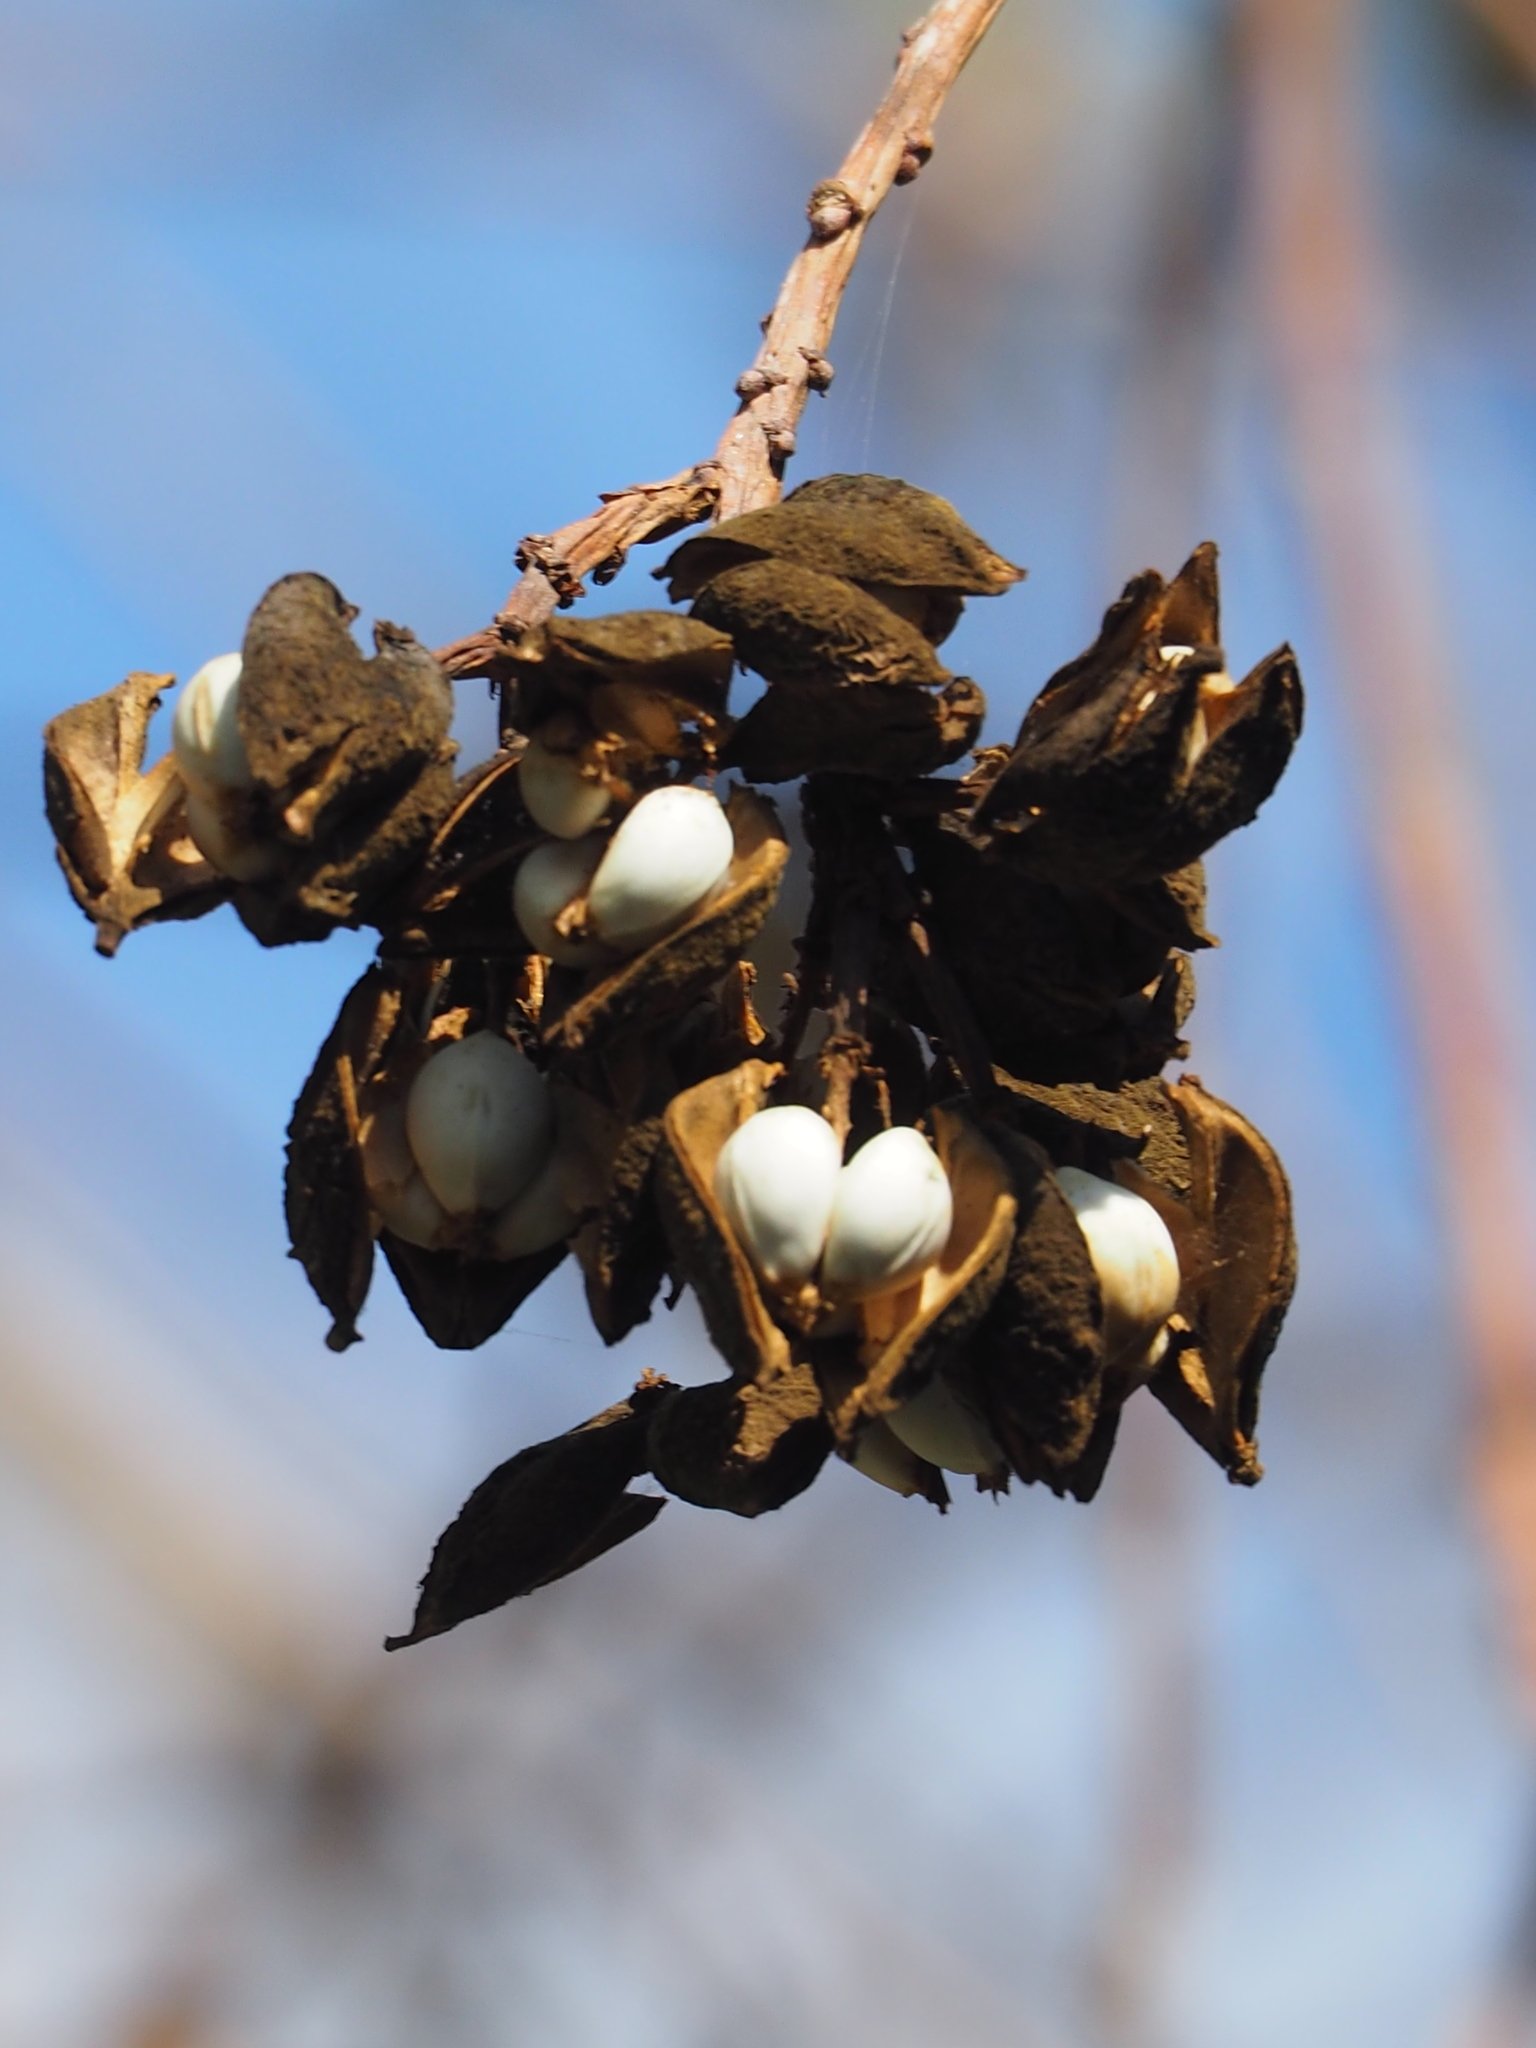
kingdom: Plantae
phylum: Tracheophyta
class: Magnoliopsida
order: Malpighiales
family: Euphorbiaceae
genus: Triadica
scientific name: Triadica sebifera
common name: Chinese tallow
